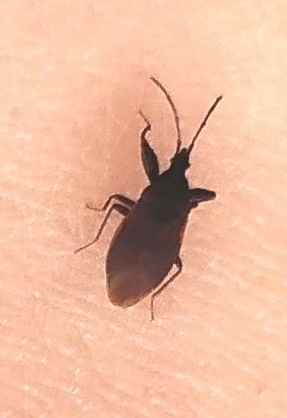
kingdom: Animalia
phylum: Arthropoda
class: Insecta
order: Hemiptera
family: Rhyparochromidae
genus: Gastrodes
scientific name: Gastrodes grossipes
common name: Pine cone bug
